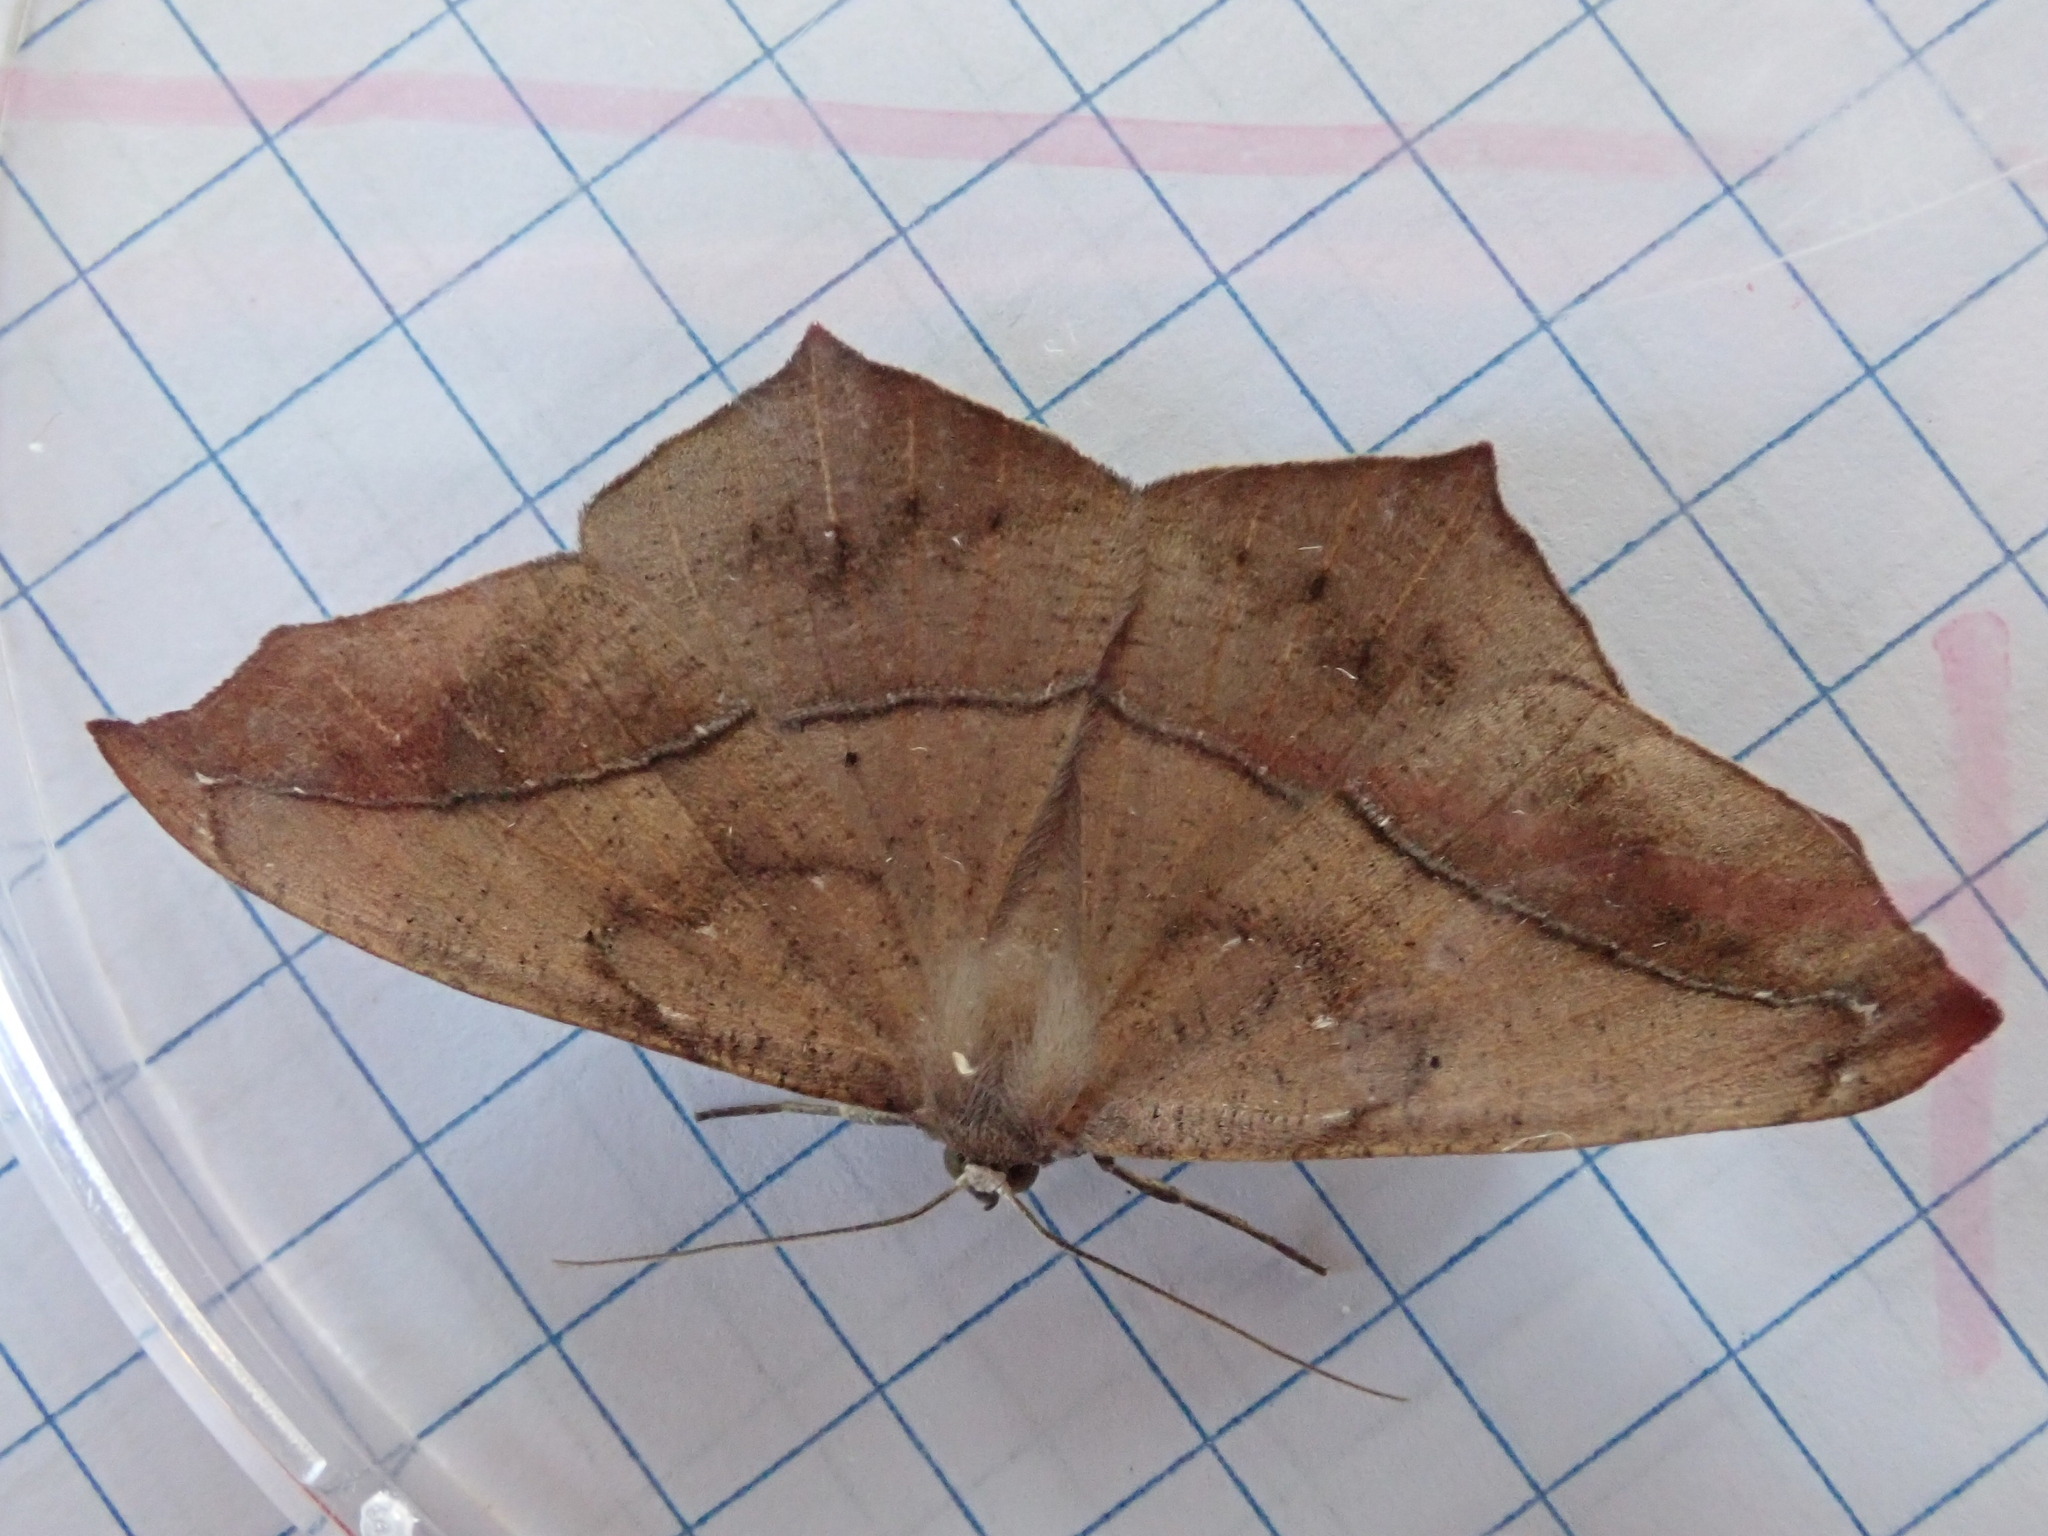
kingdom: Animalia
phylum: Arthropoda
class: Insecta
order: Lepidoptera
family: Geometridae
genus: Prochoerodes
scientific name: Prochoerodes lineola
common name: Large maple spanworm
